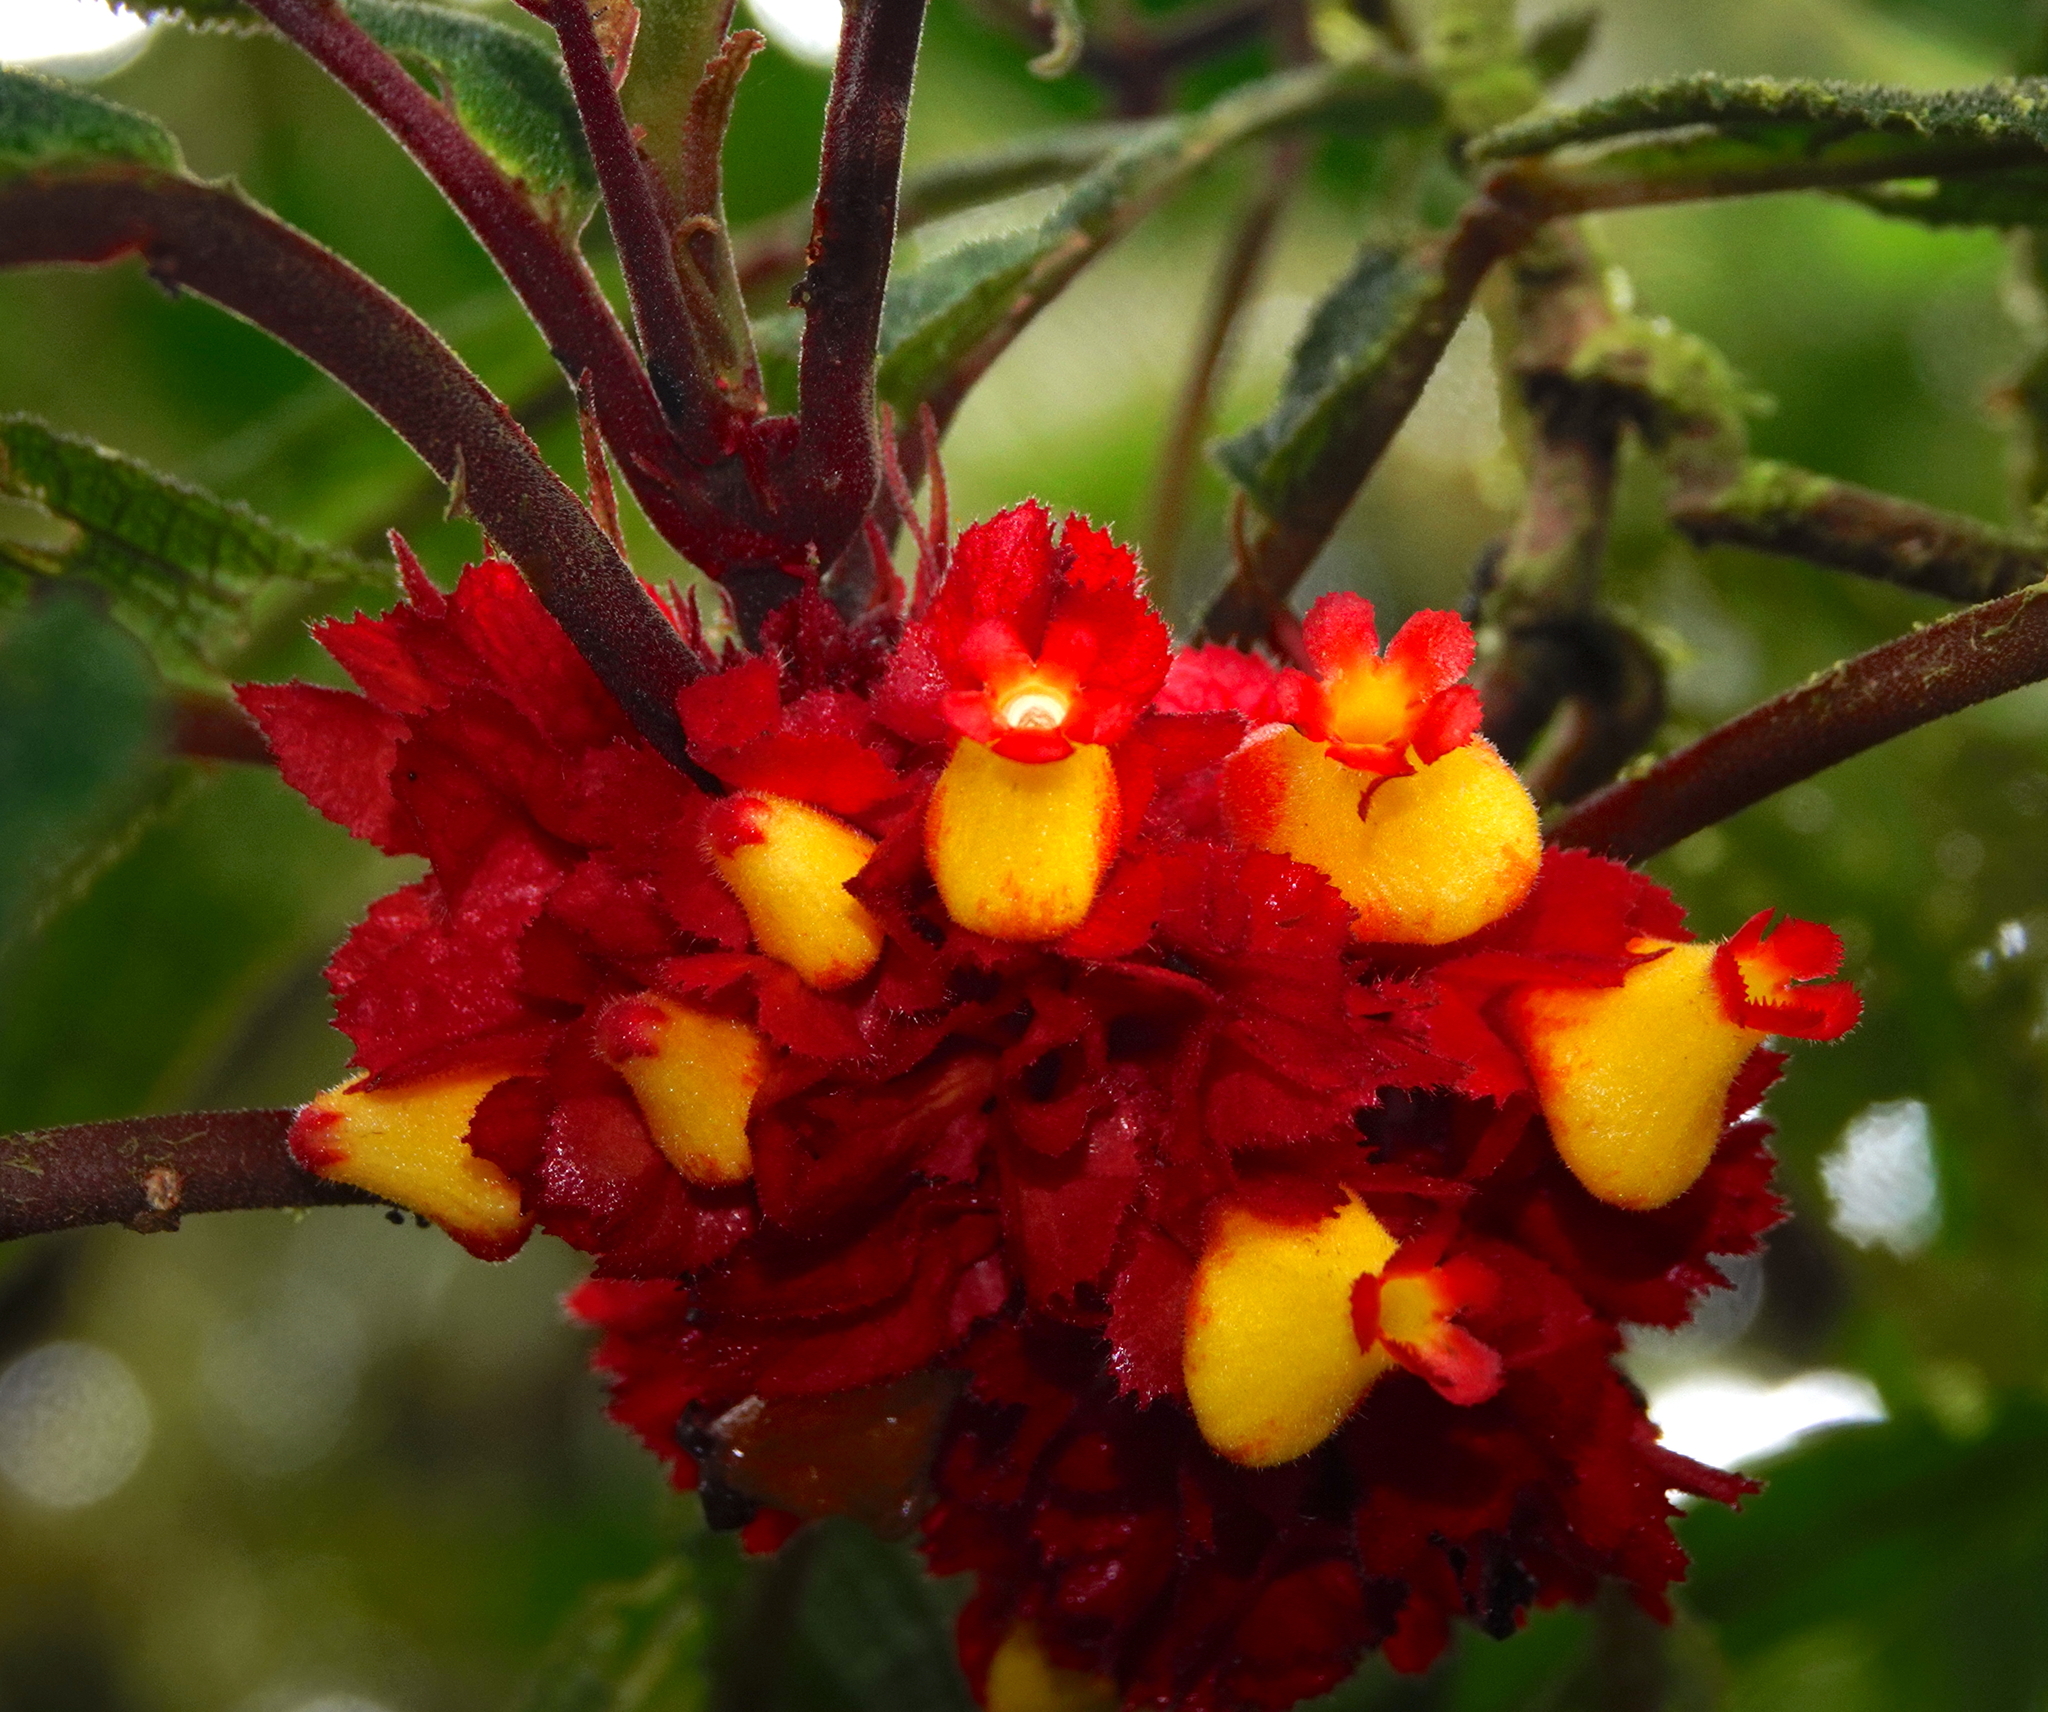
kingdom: Plantae
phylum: Tracheophyta
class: Magnoliopsida
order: Lamiales
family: Gesneriaceae
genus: Drymonia
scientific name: Drymonia teuscheri
